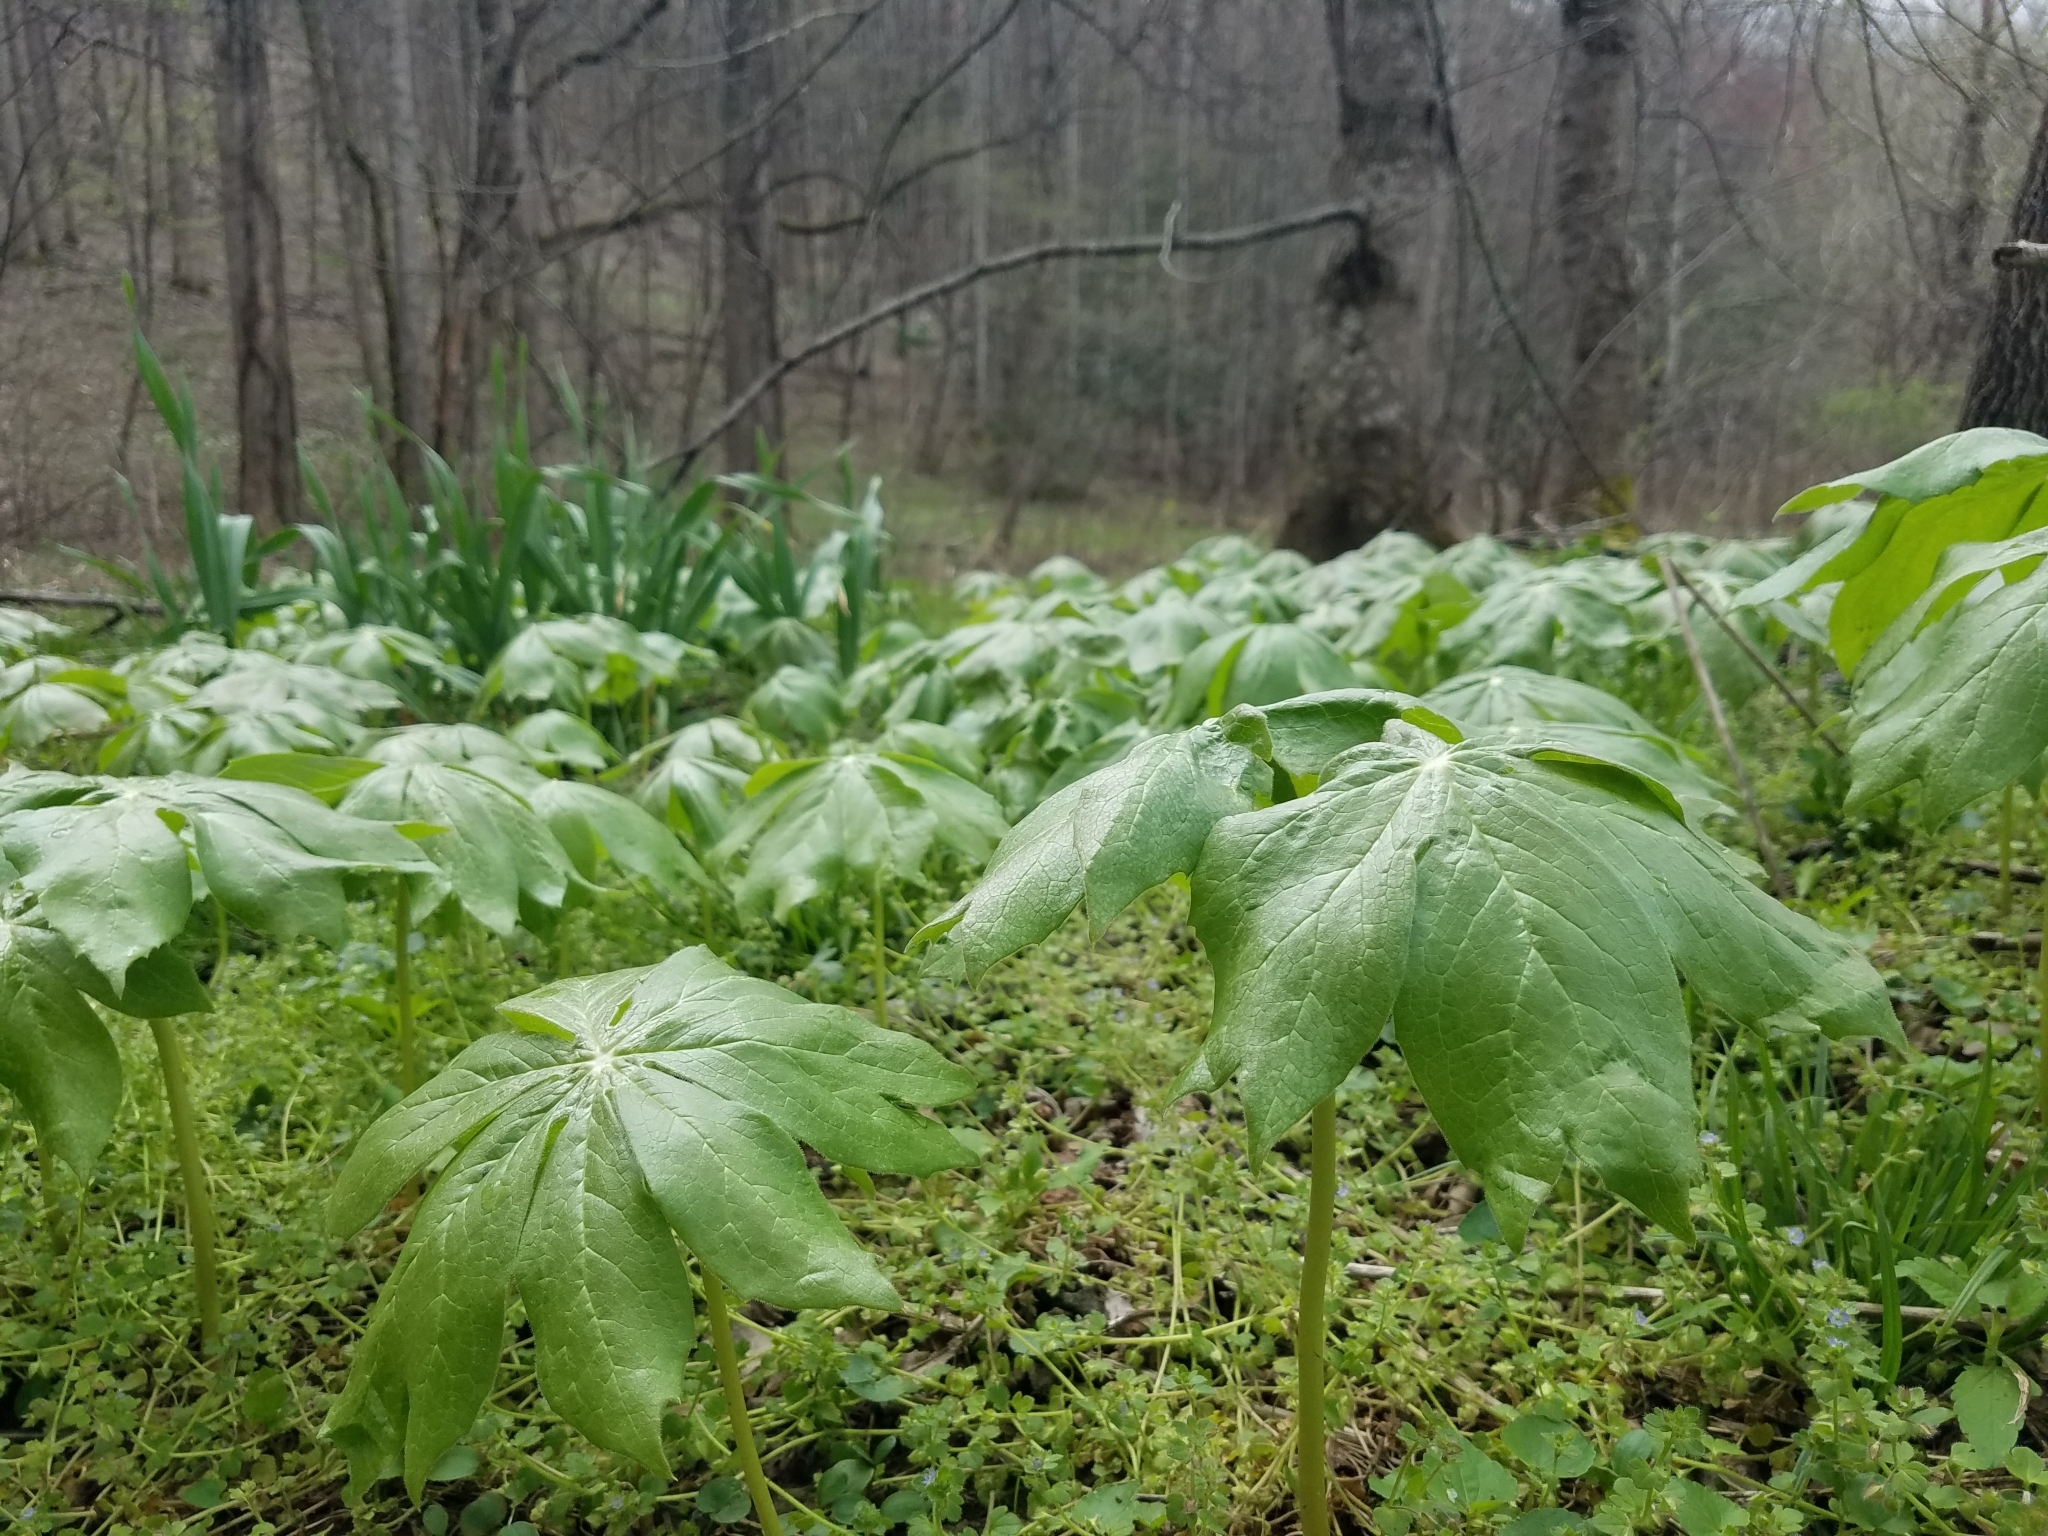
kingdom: Plantae
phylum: Tracheophyta
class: Magnoliopsida
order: Ranunculales
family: Berberidaceae
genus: Podophyllum
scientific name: Podophyllum peltatum
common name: Wild mandrake
